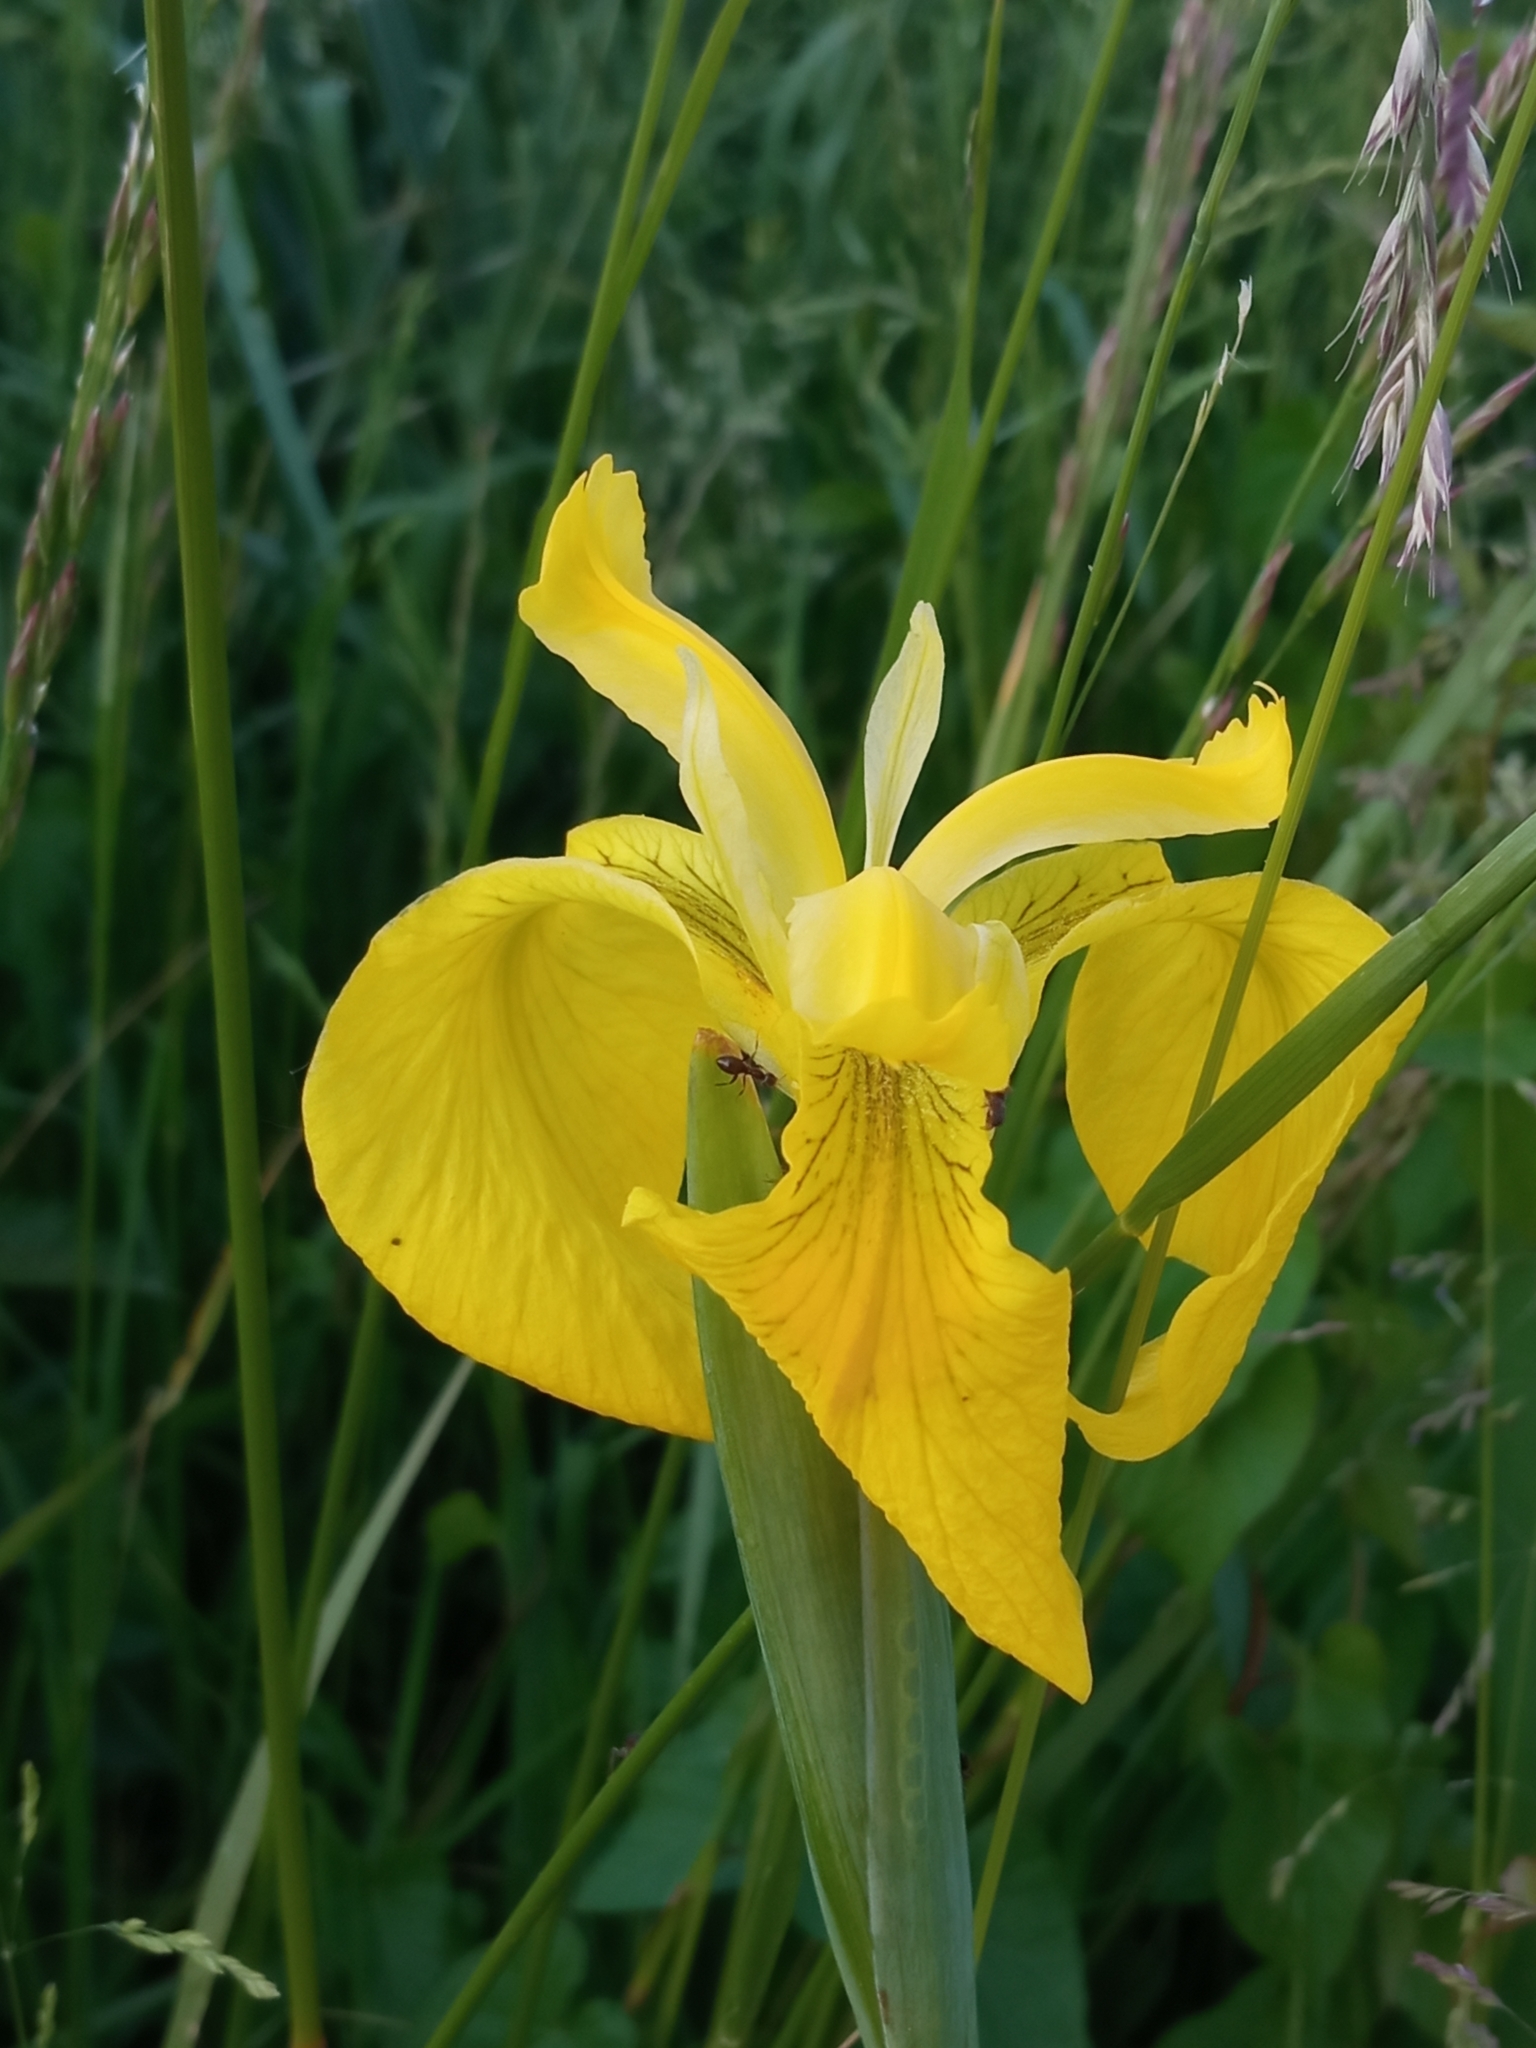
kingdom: Plantae
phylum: Tracheophyta
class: Liliopsida
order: Asparagales
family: Iridaceae
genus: Iris
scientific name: Iris pseudacorus
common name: Yellow flag
